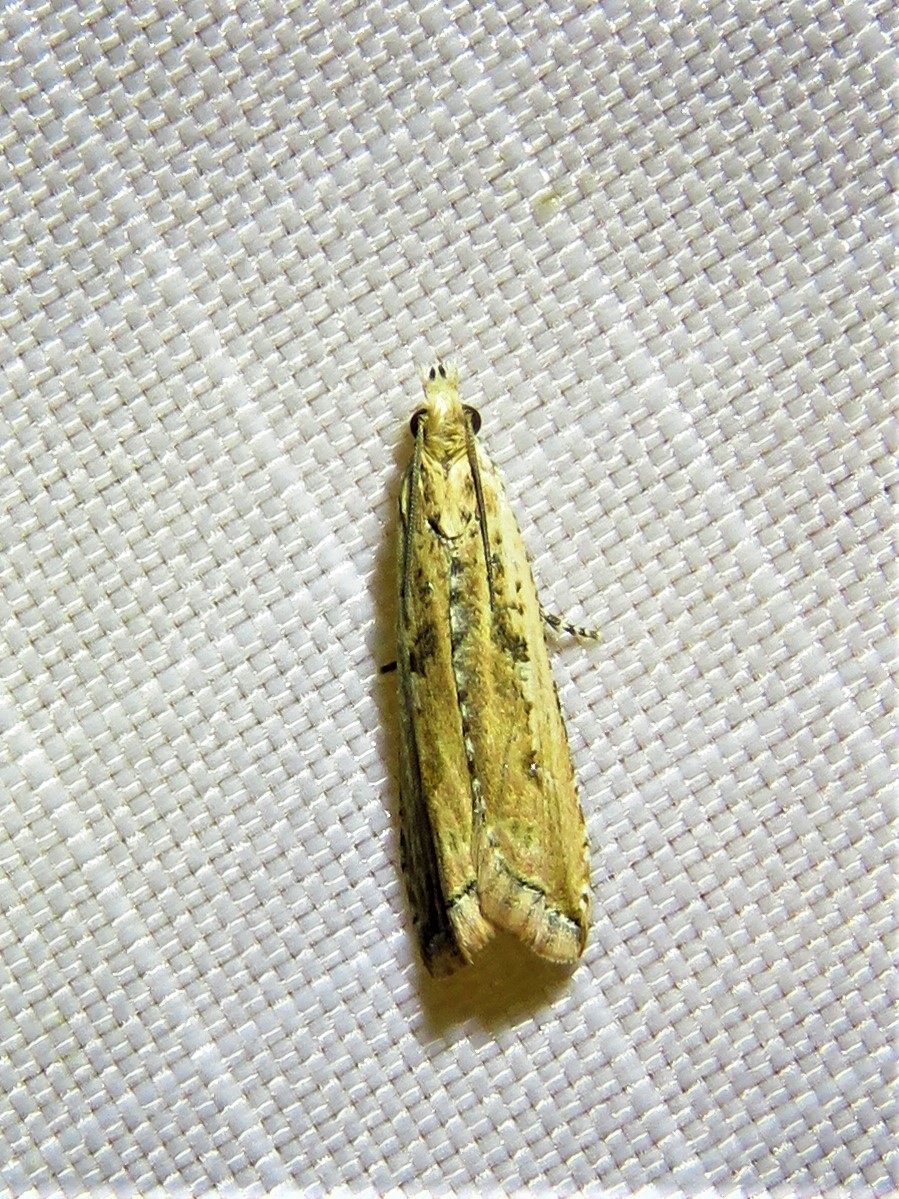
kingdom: Animalia
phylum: Arthropoda
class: Insecta
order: Lepidoptera
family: Tortricidae
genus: Bactra
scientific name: Bactra verutana
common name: Javelin moth
